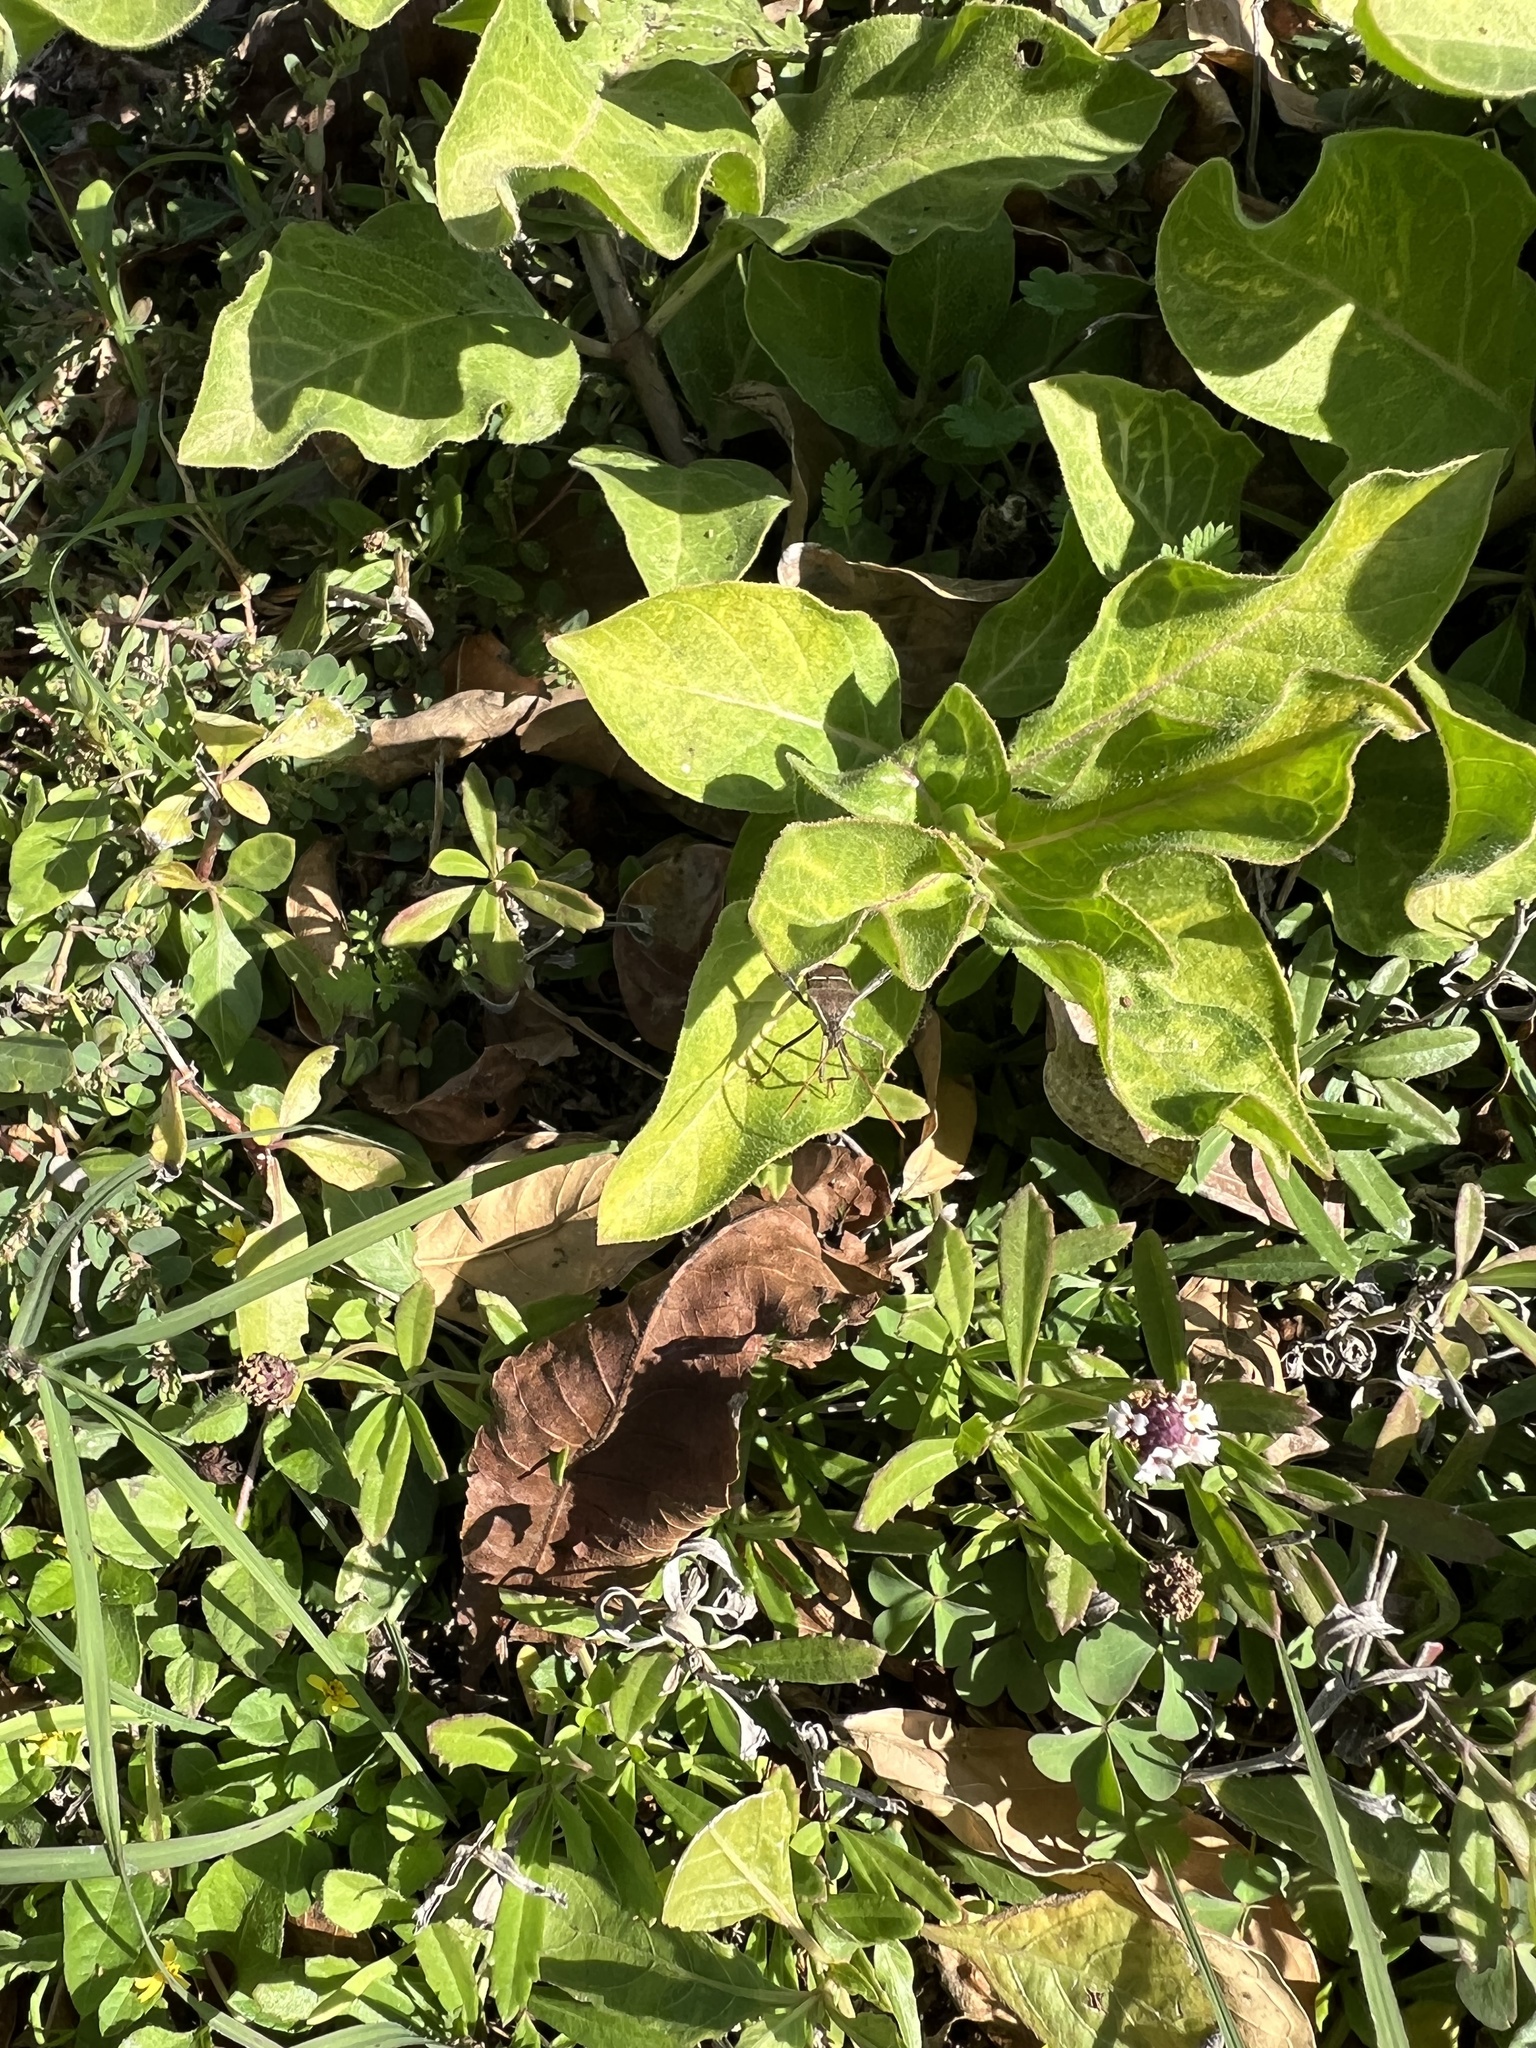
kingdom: Animalia
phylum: Arthropoda
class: Insecta
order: Hemiptera
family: Coreidae
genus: Leptoglossus
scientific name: Leptoglossus phyllopus
